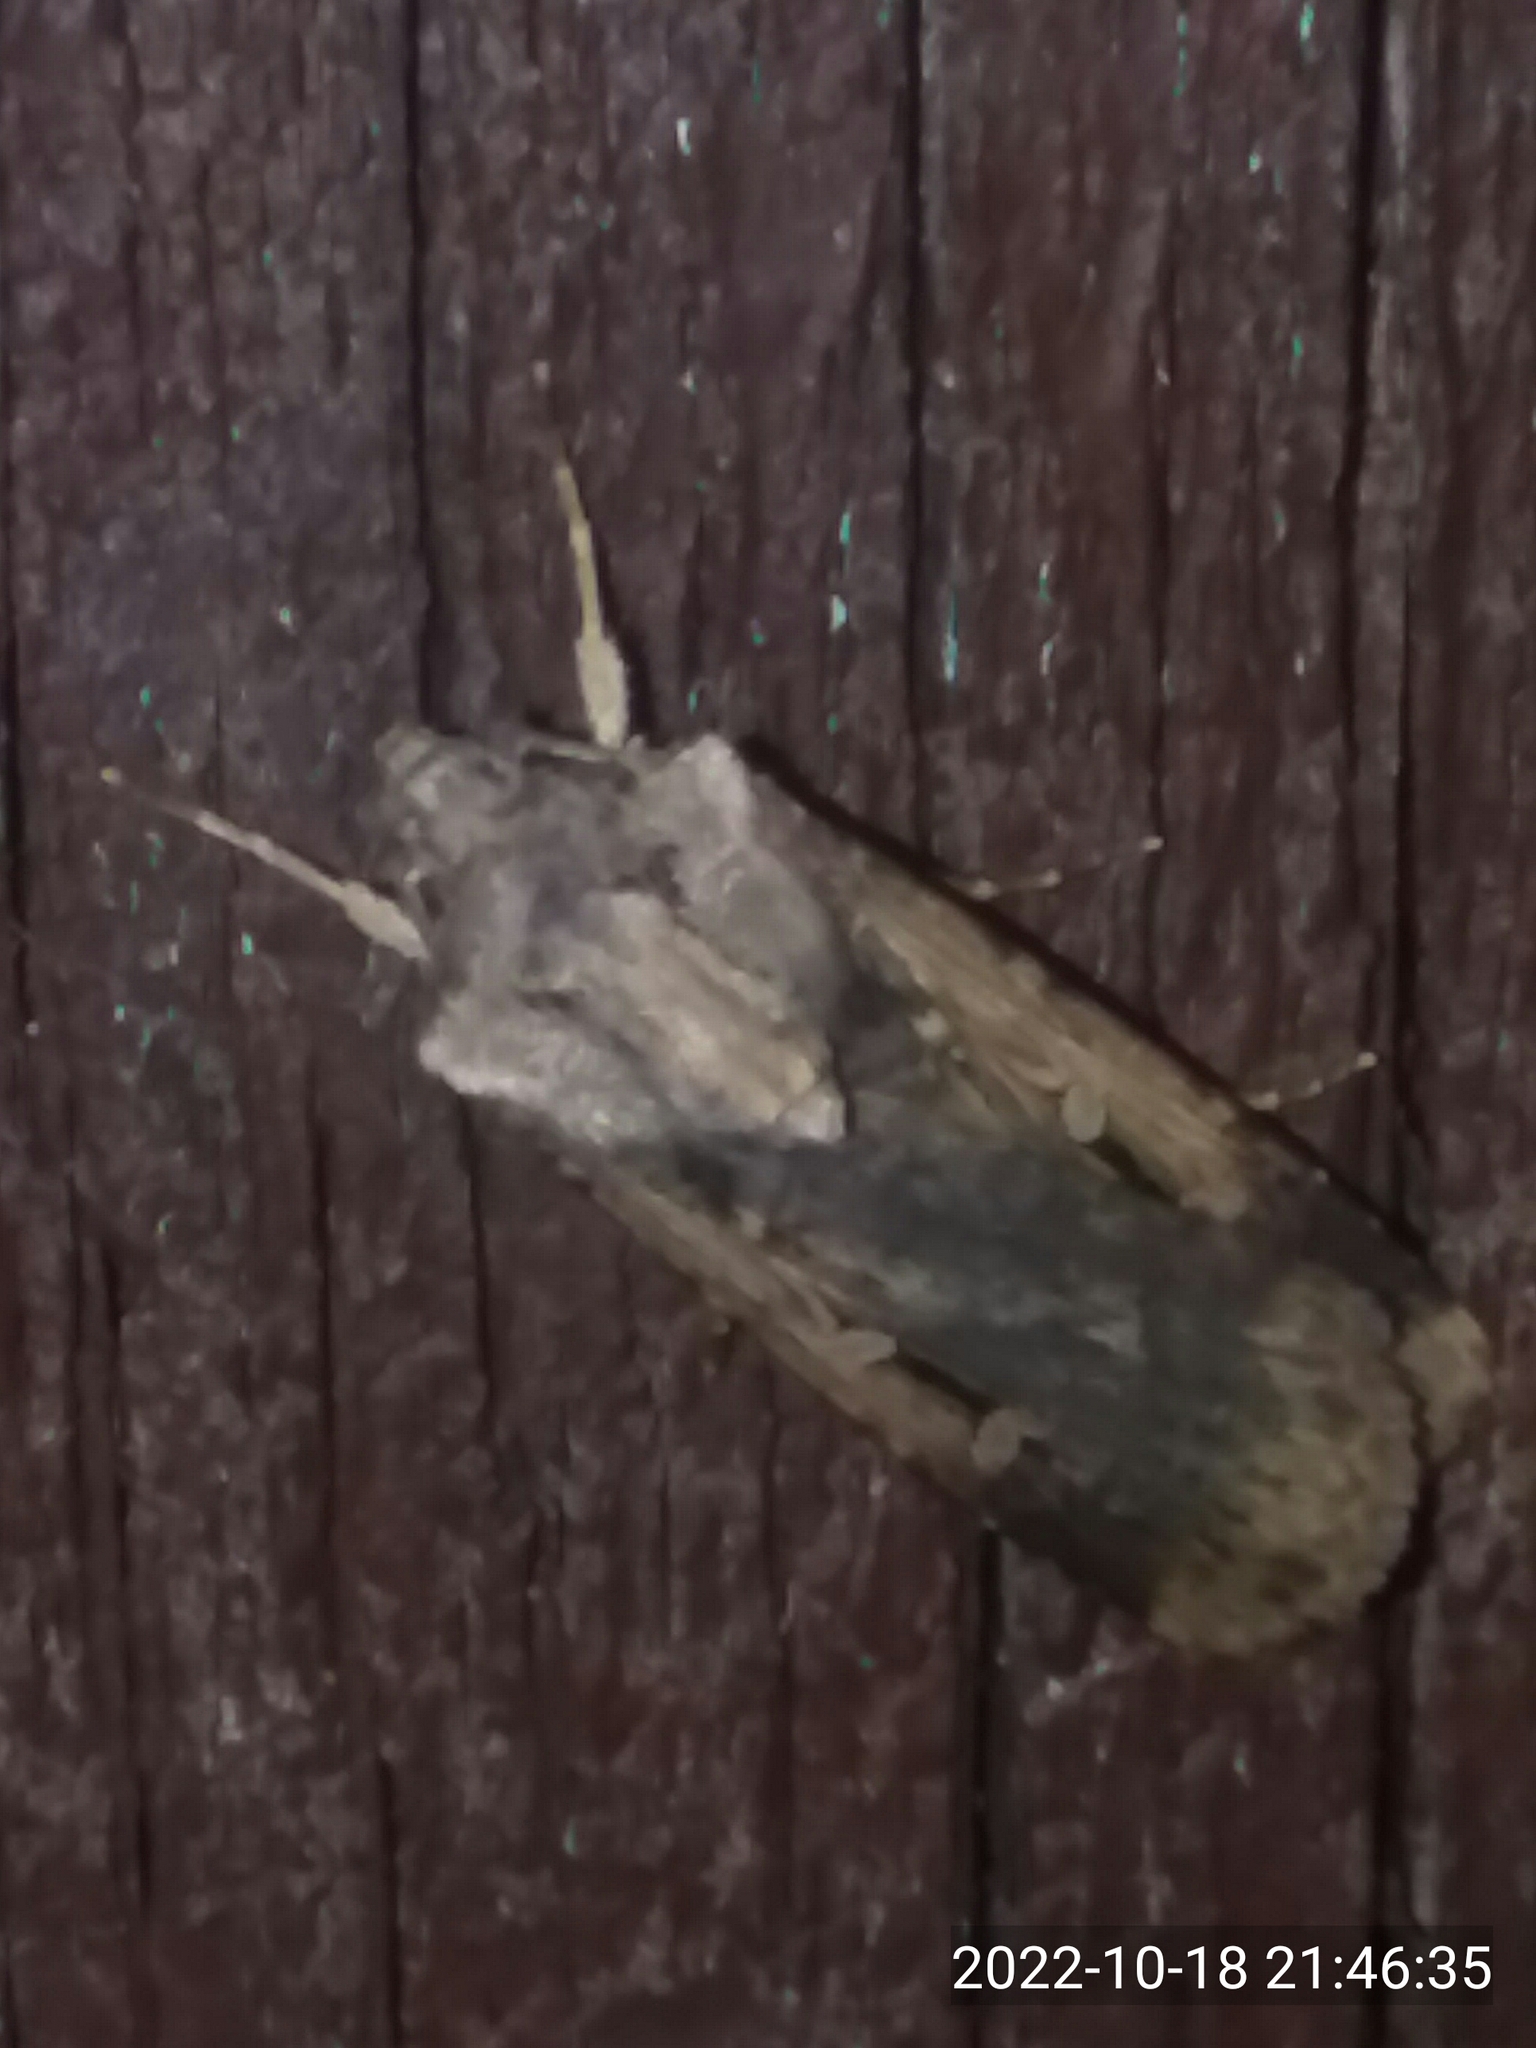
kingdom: Animalia
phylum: Arthropoda
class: Insecta
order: Lepidoptera
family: Noctuidae
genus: Feltia
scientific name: Feltia subterranea
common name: Granulate cutworm
